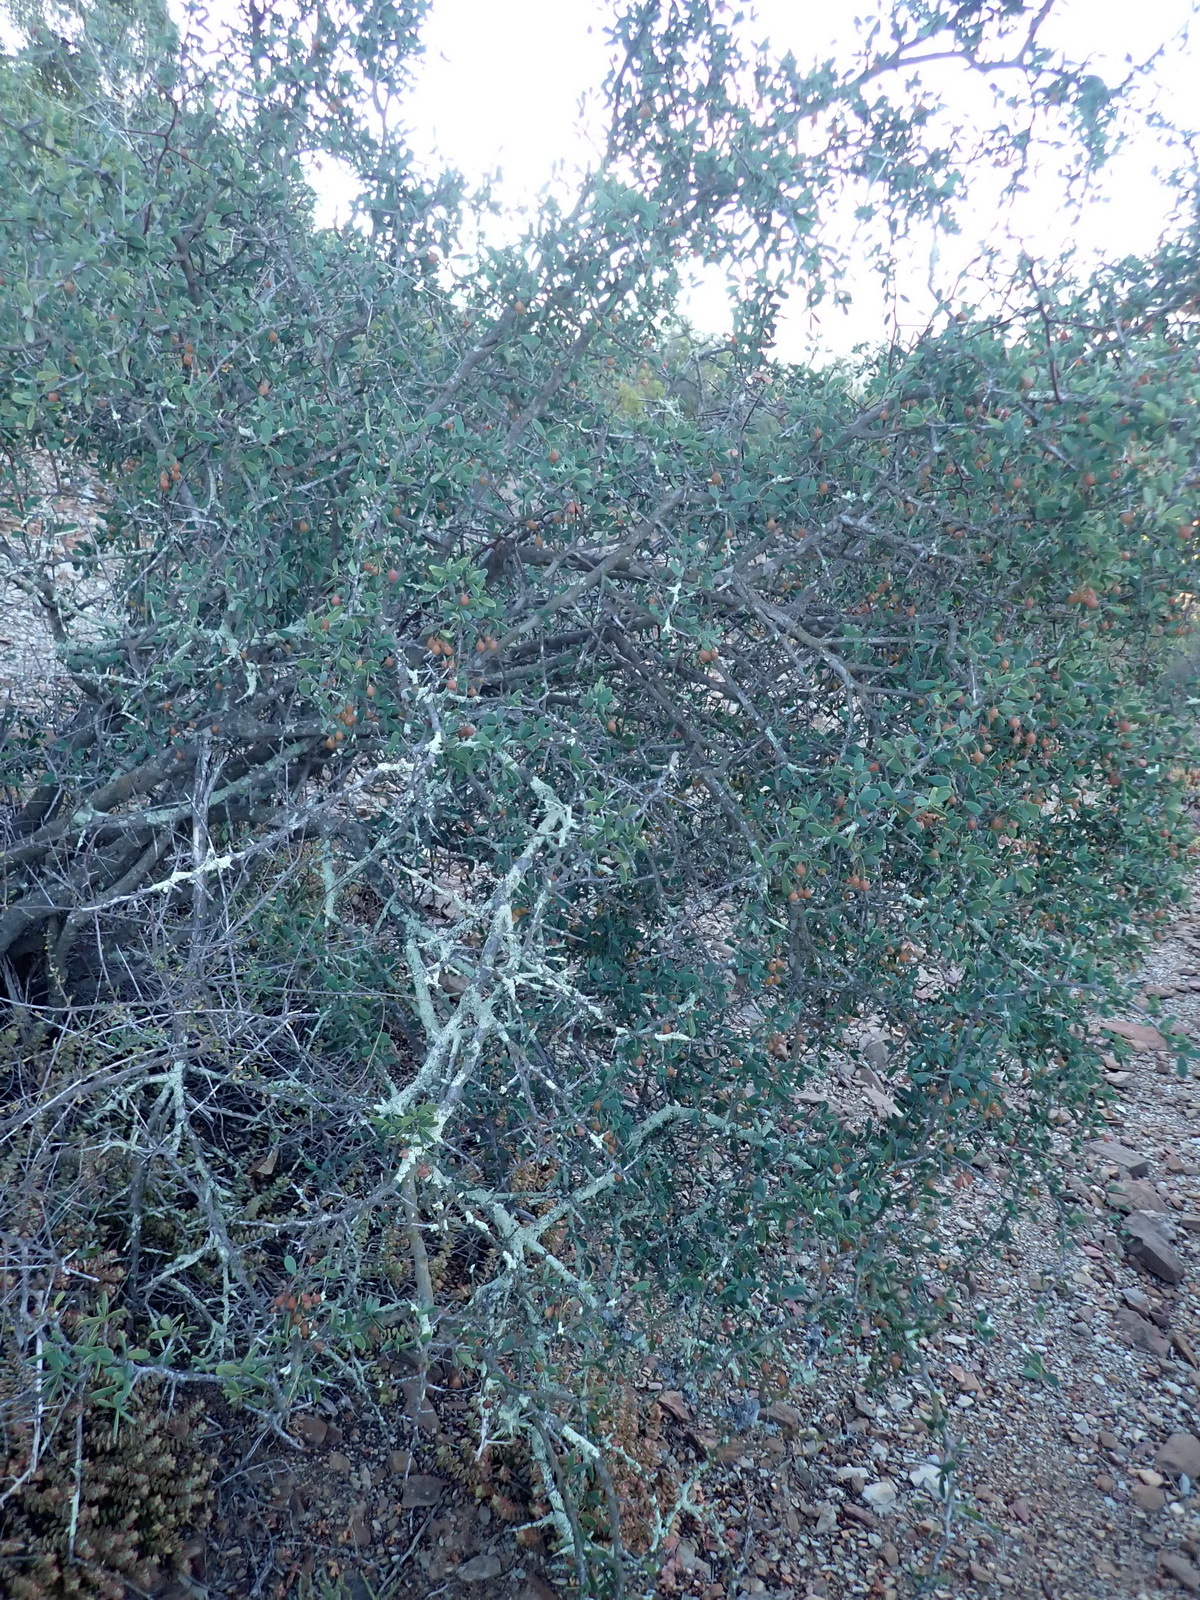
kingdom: Plantae
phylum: Tracheophyta
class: Magnoliopsida
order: Celastrales
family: Celastraceae
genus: Gloveria
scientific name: Gloveria integrifolia
